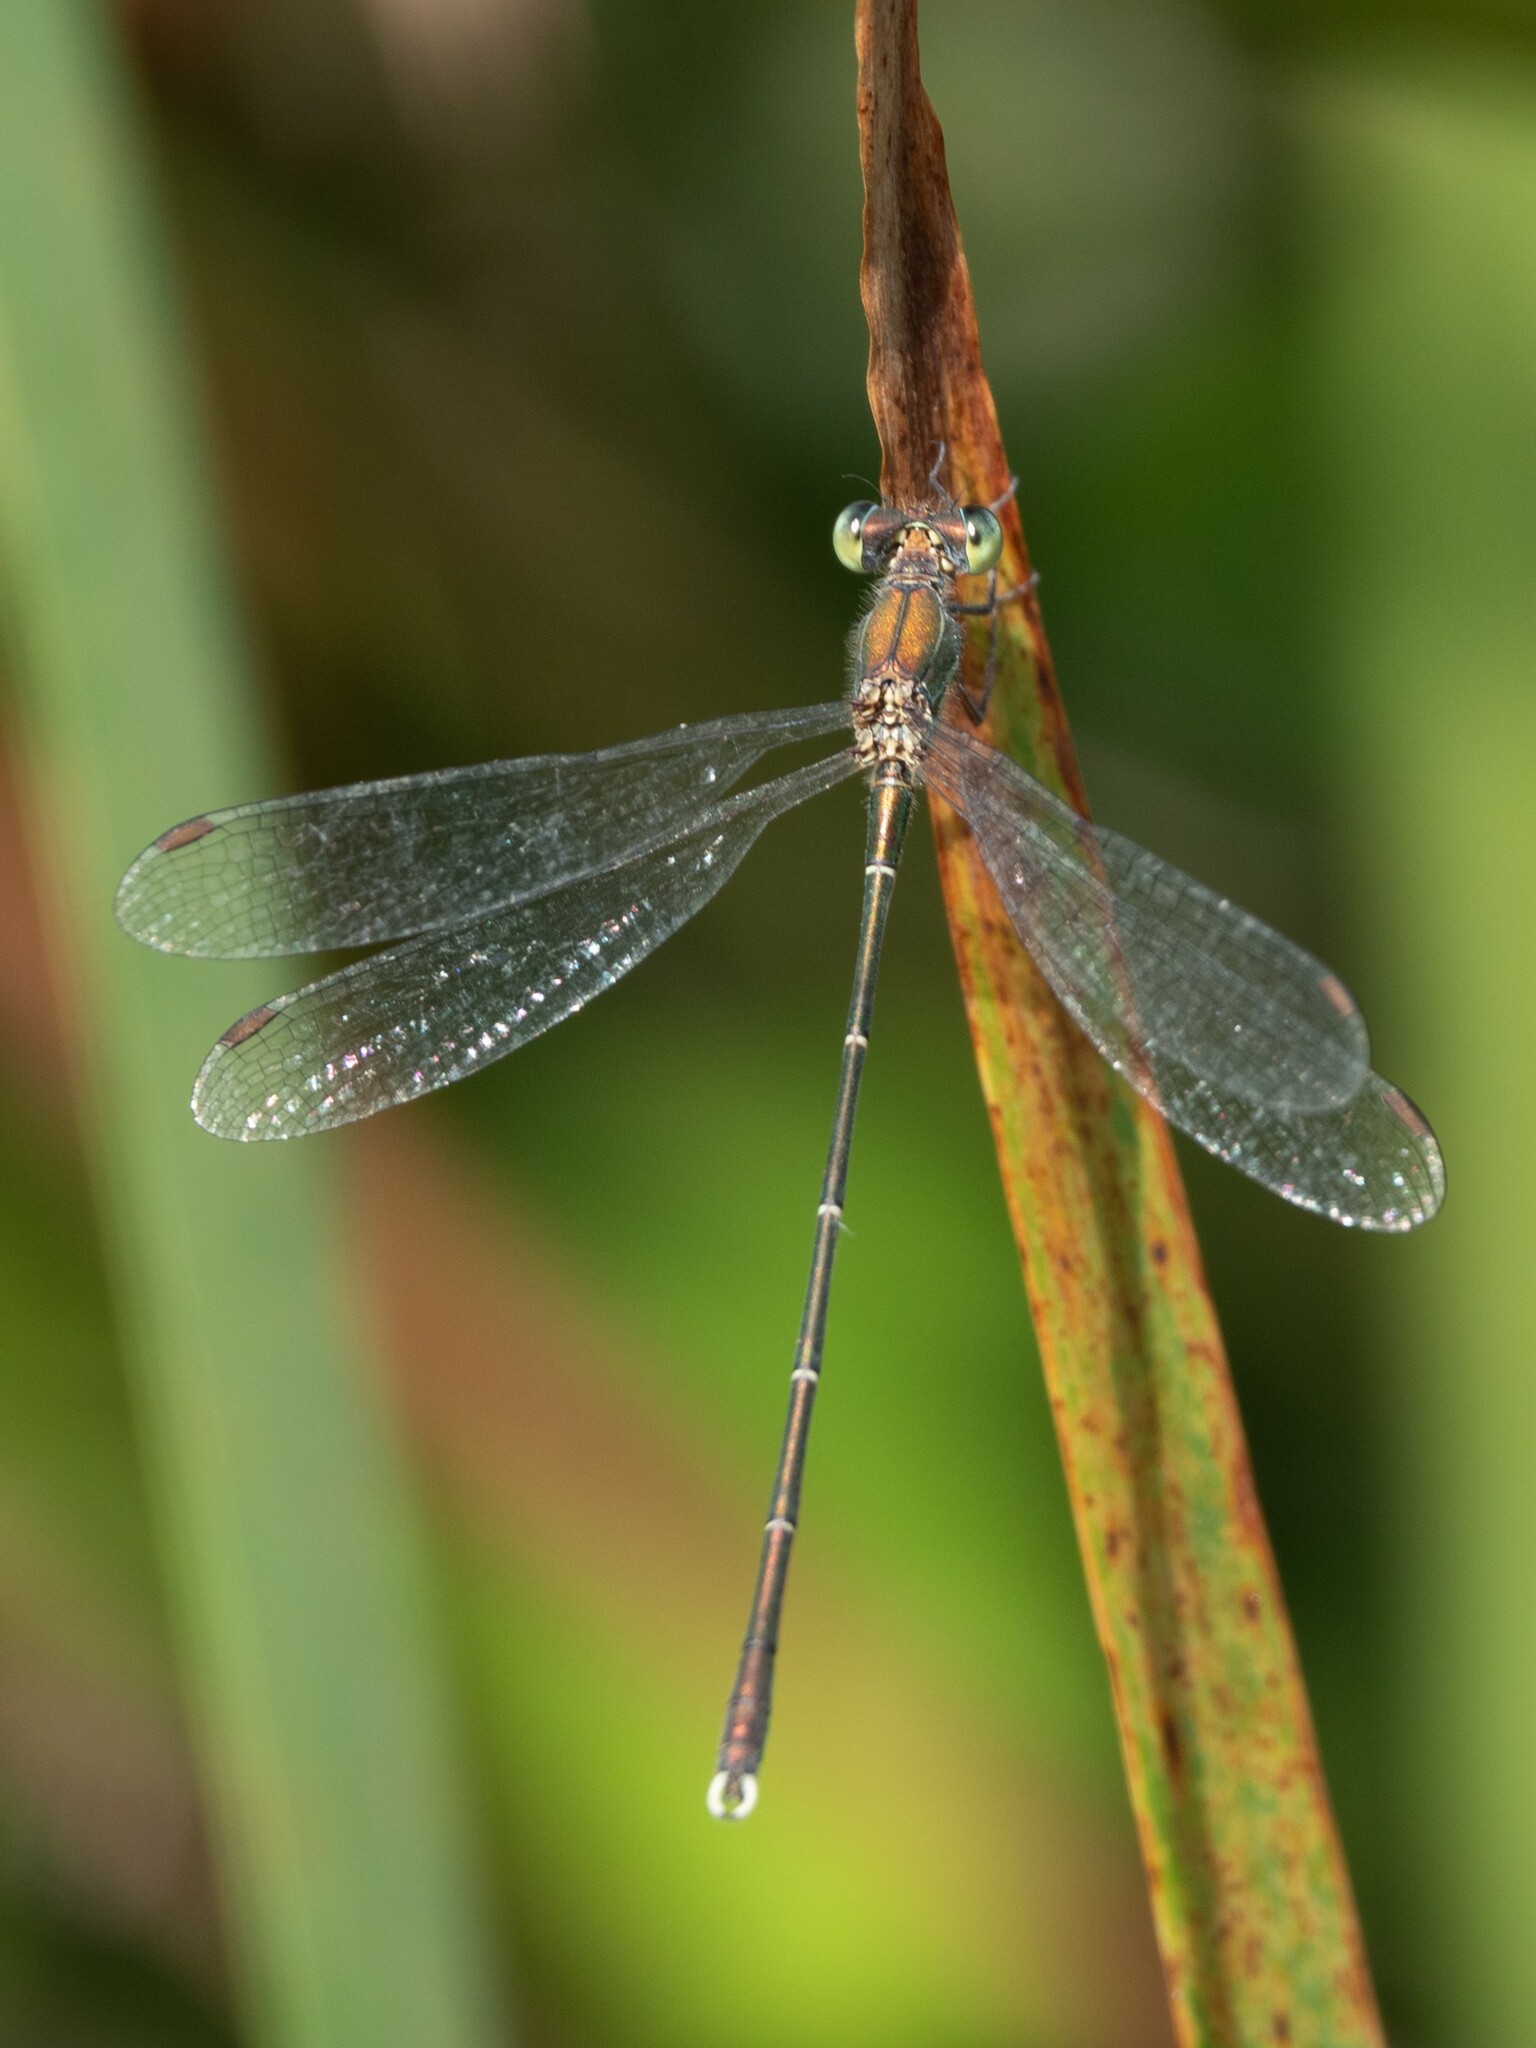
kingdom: Animalia
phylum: Arthropoda
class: Insecta
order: Odonata
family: Lestidae
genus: Chalcolestes
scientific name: Chalcolestes parvidens
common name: Eastern willow spreadwing
